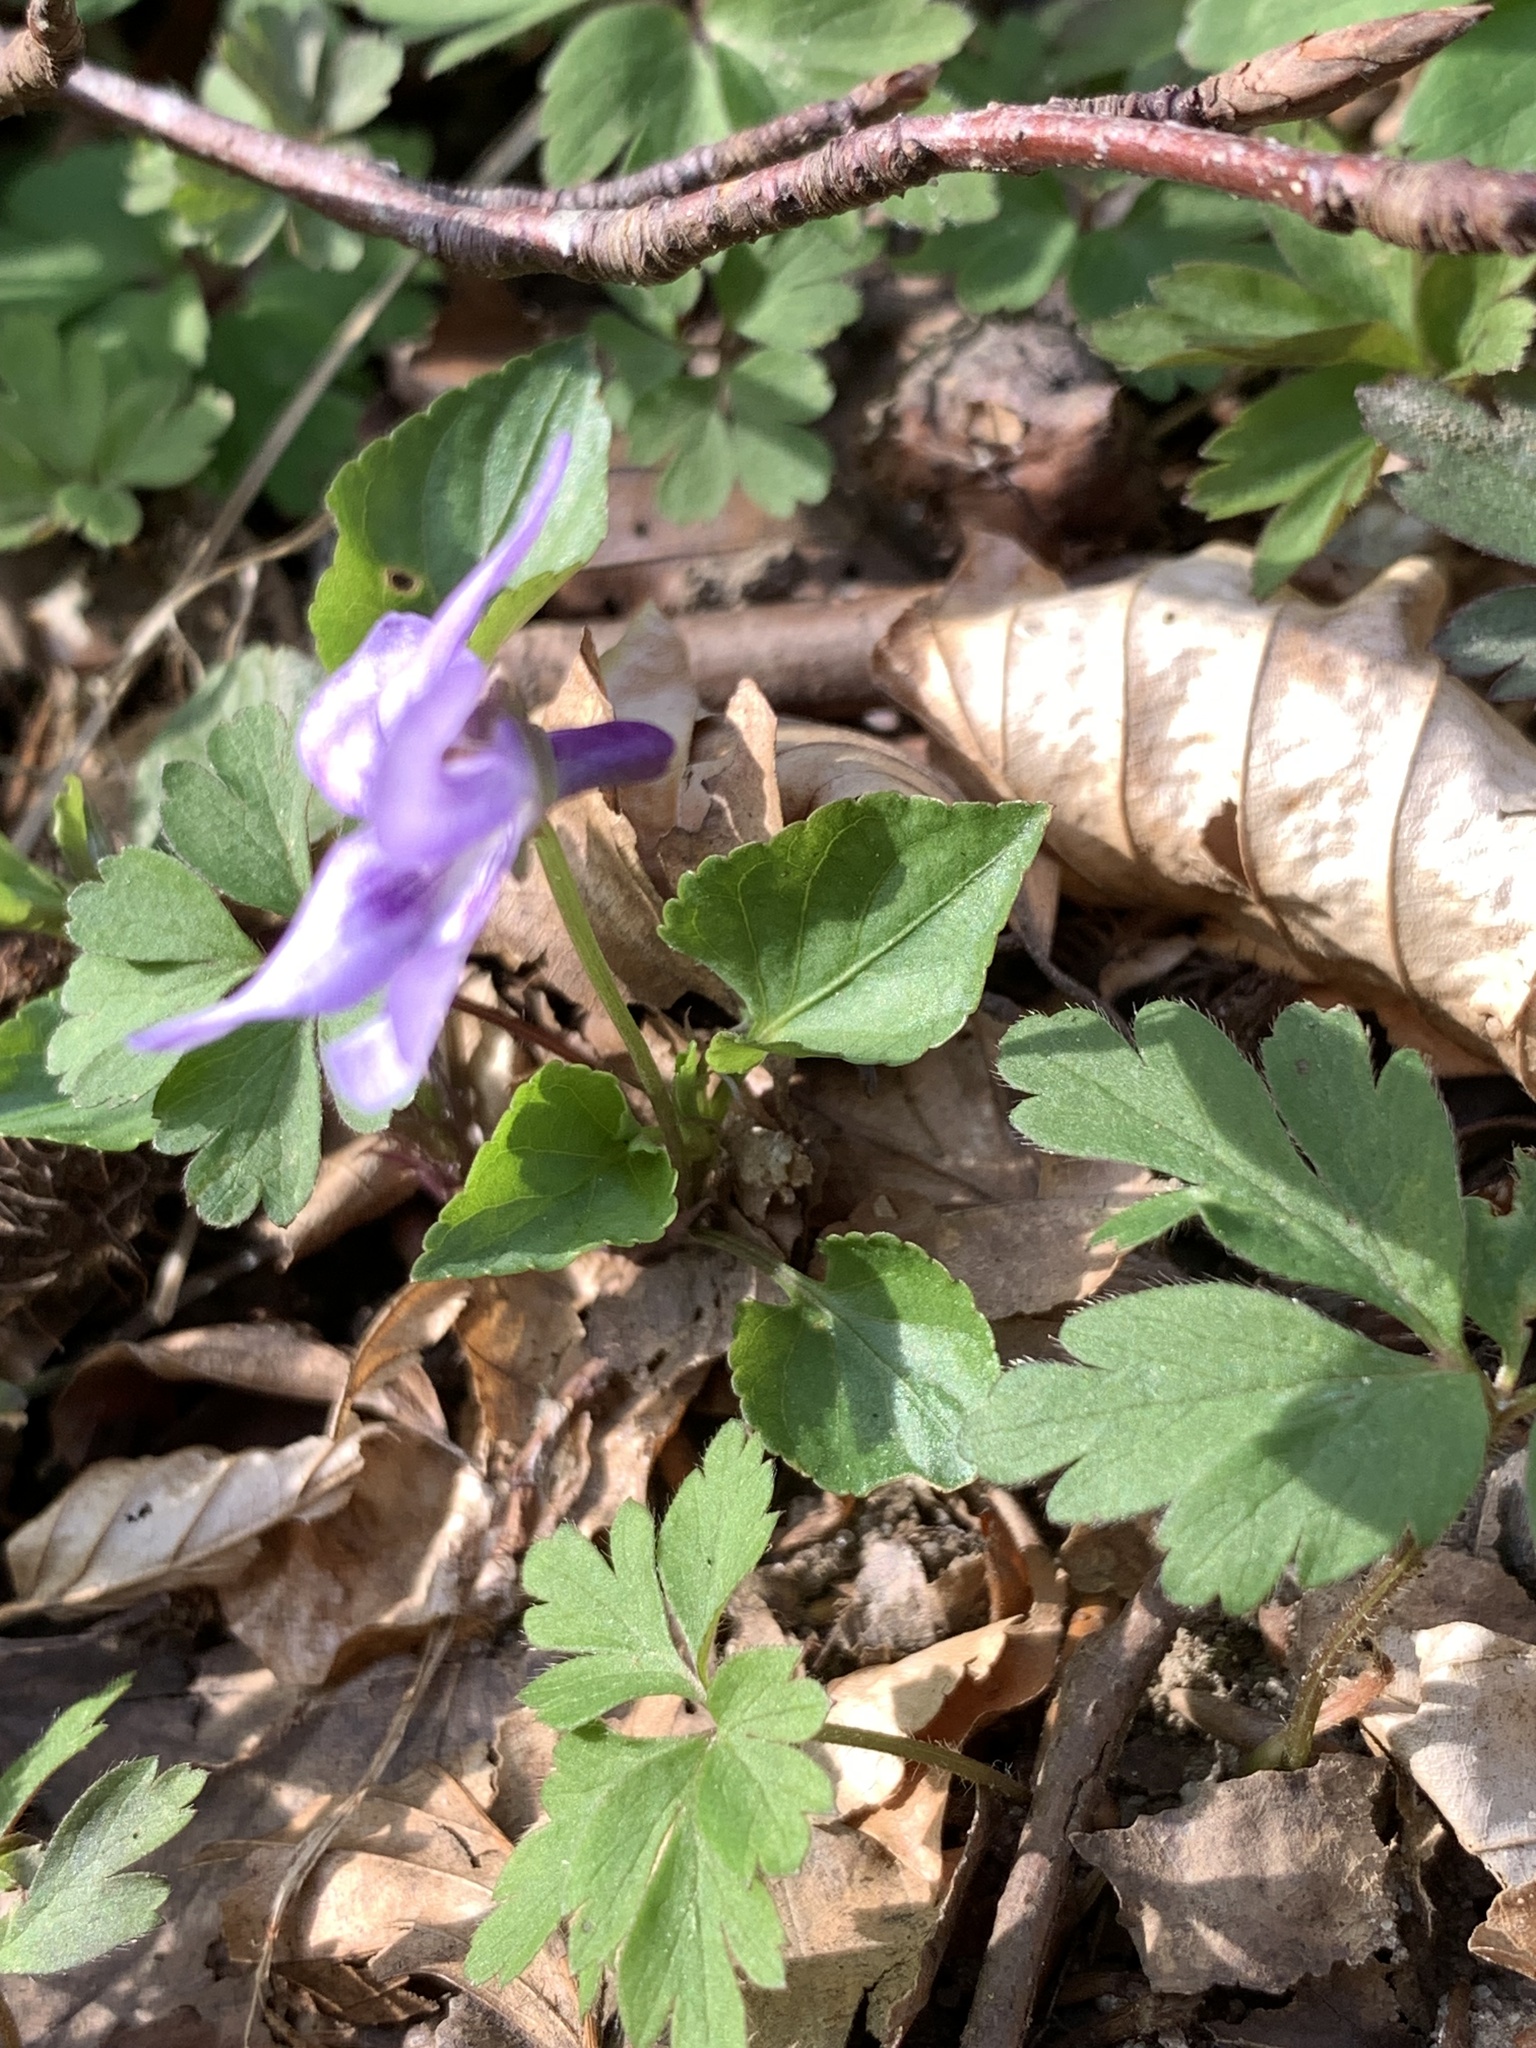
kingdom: Plantae
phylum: Tracheophyta
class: Magnoliopsida
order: Malpighiales
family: Violaceae
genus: Viola
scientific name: Viola reichenbachiana
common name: Early dog-violet
